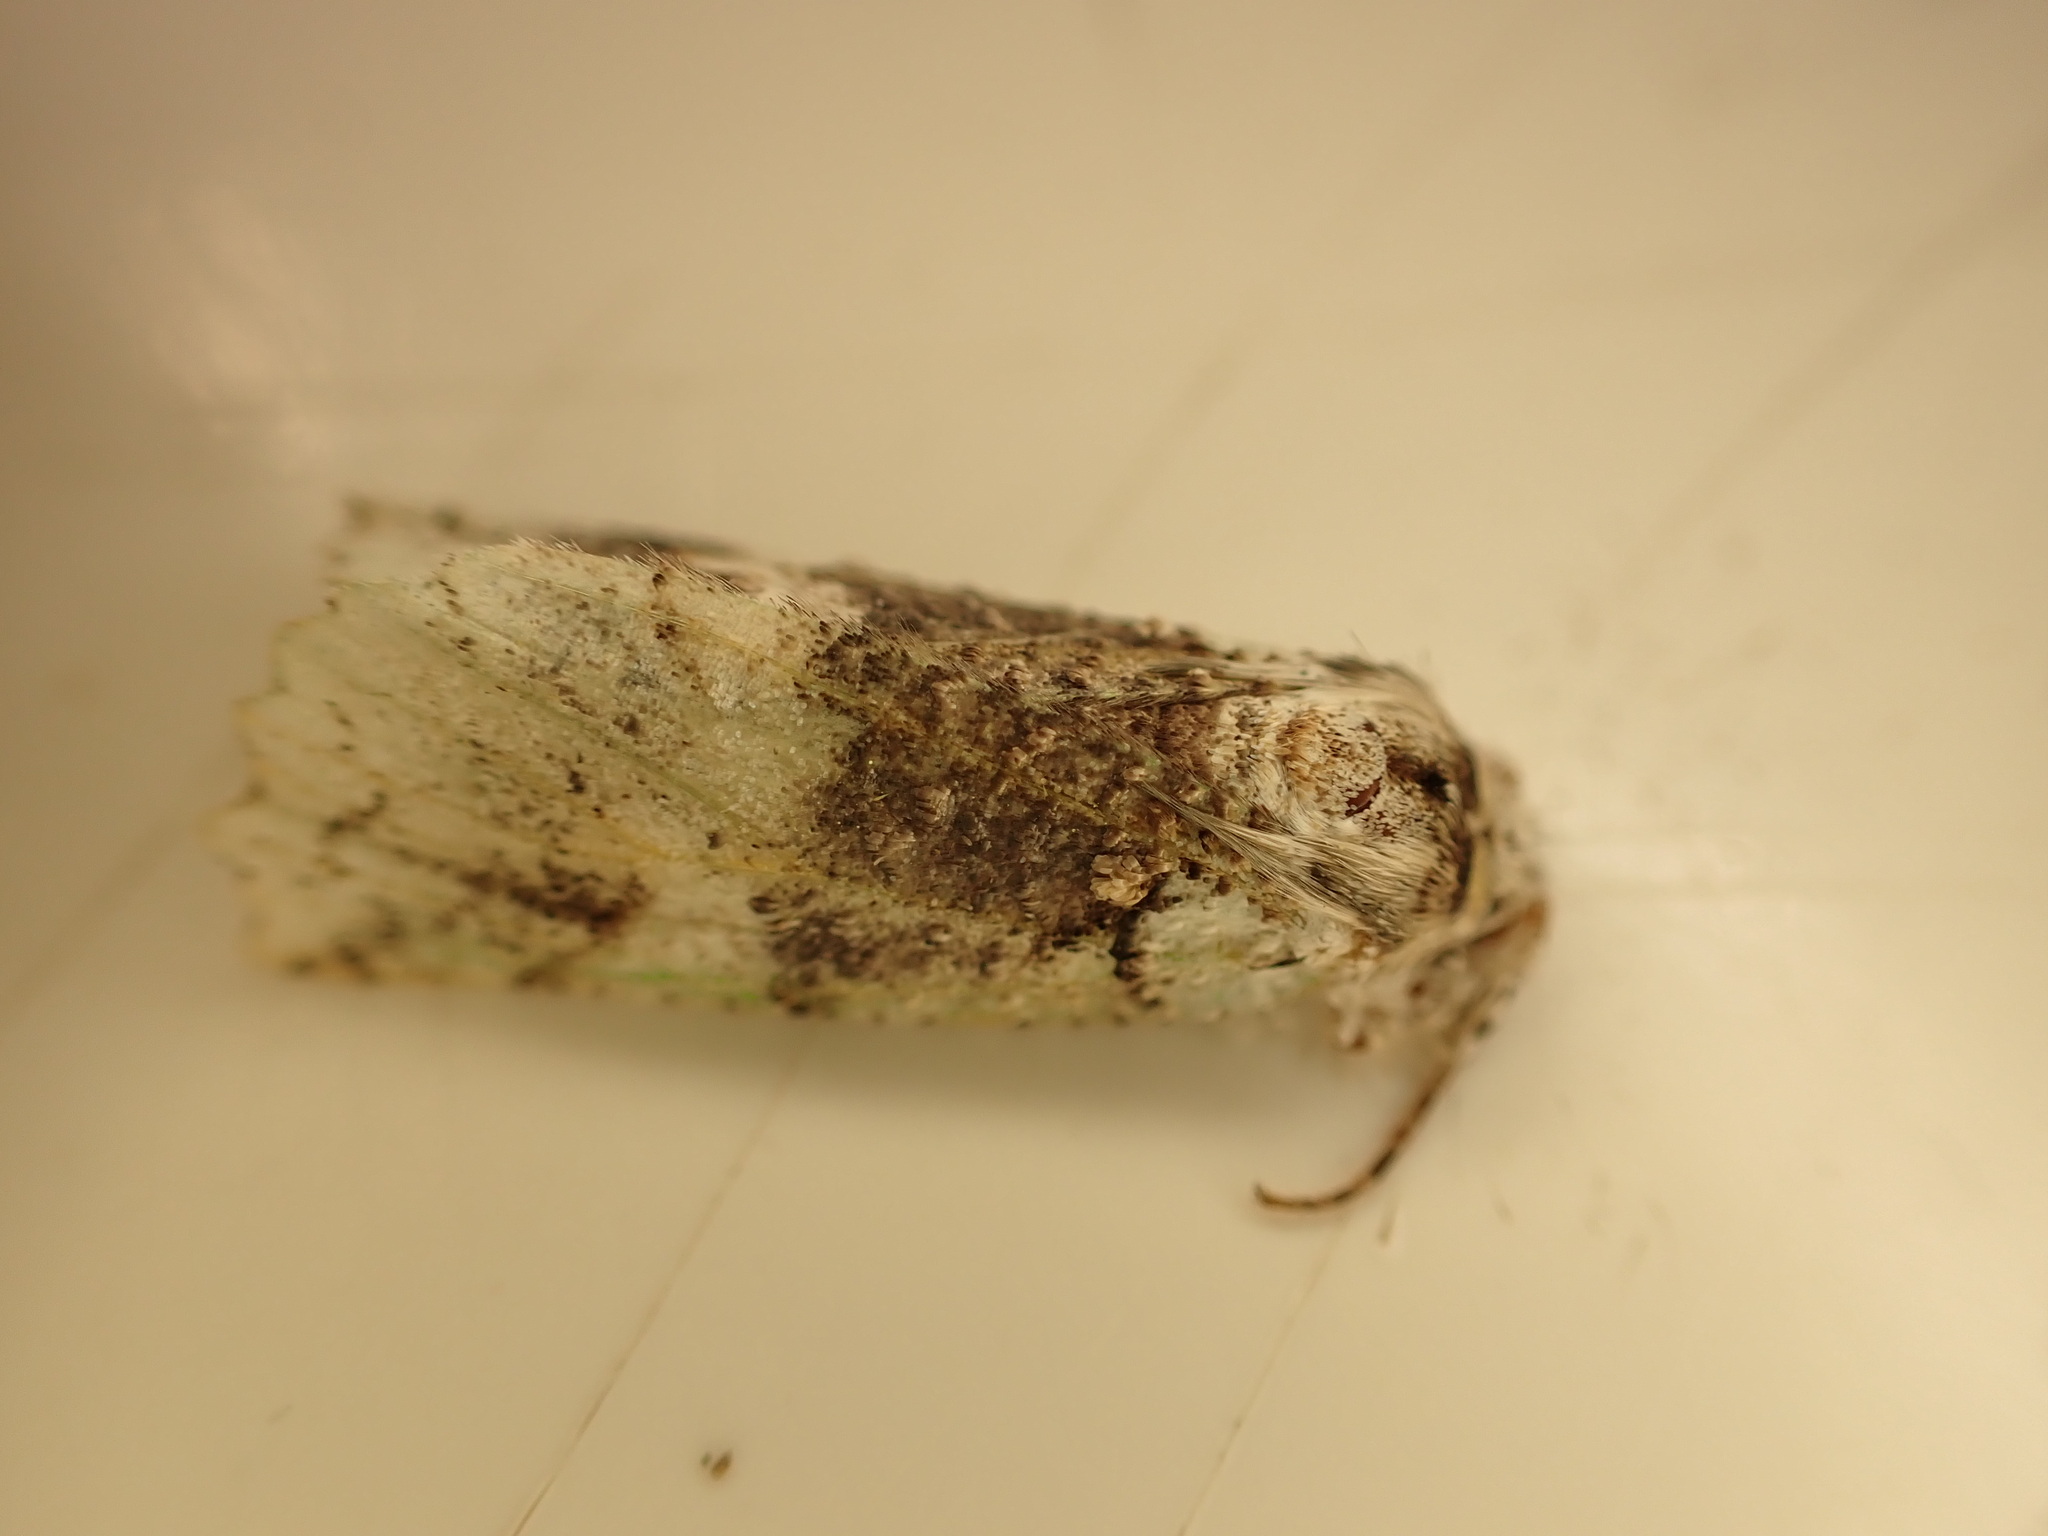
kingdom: Animalia
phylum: Arthropoda
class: Insecta
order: Lepidoptera
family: Geometridae
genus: Declana
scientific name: Declana floccosa
